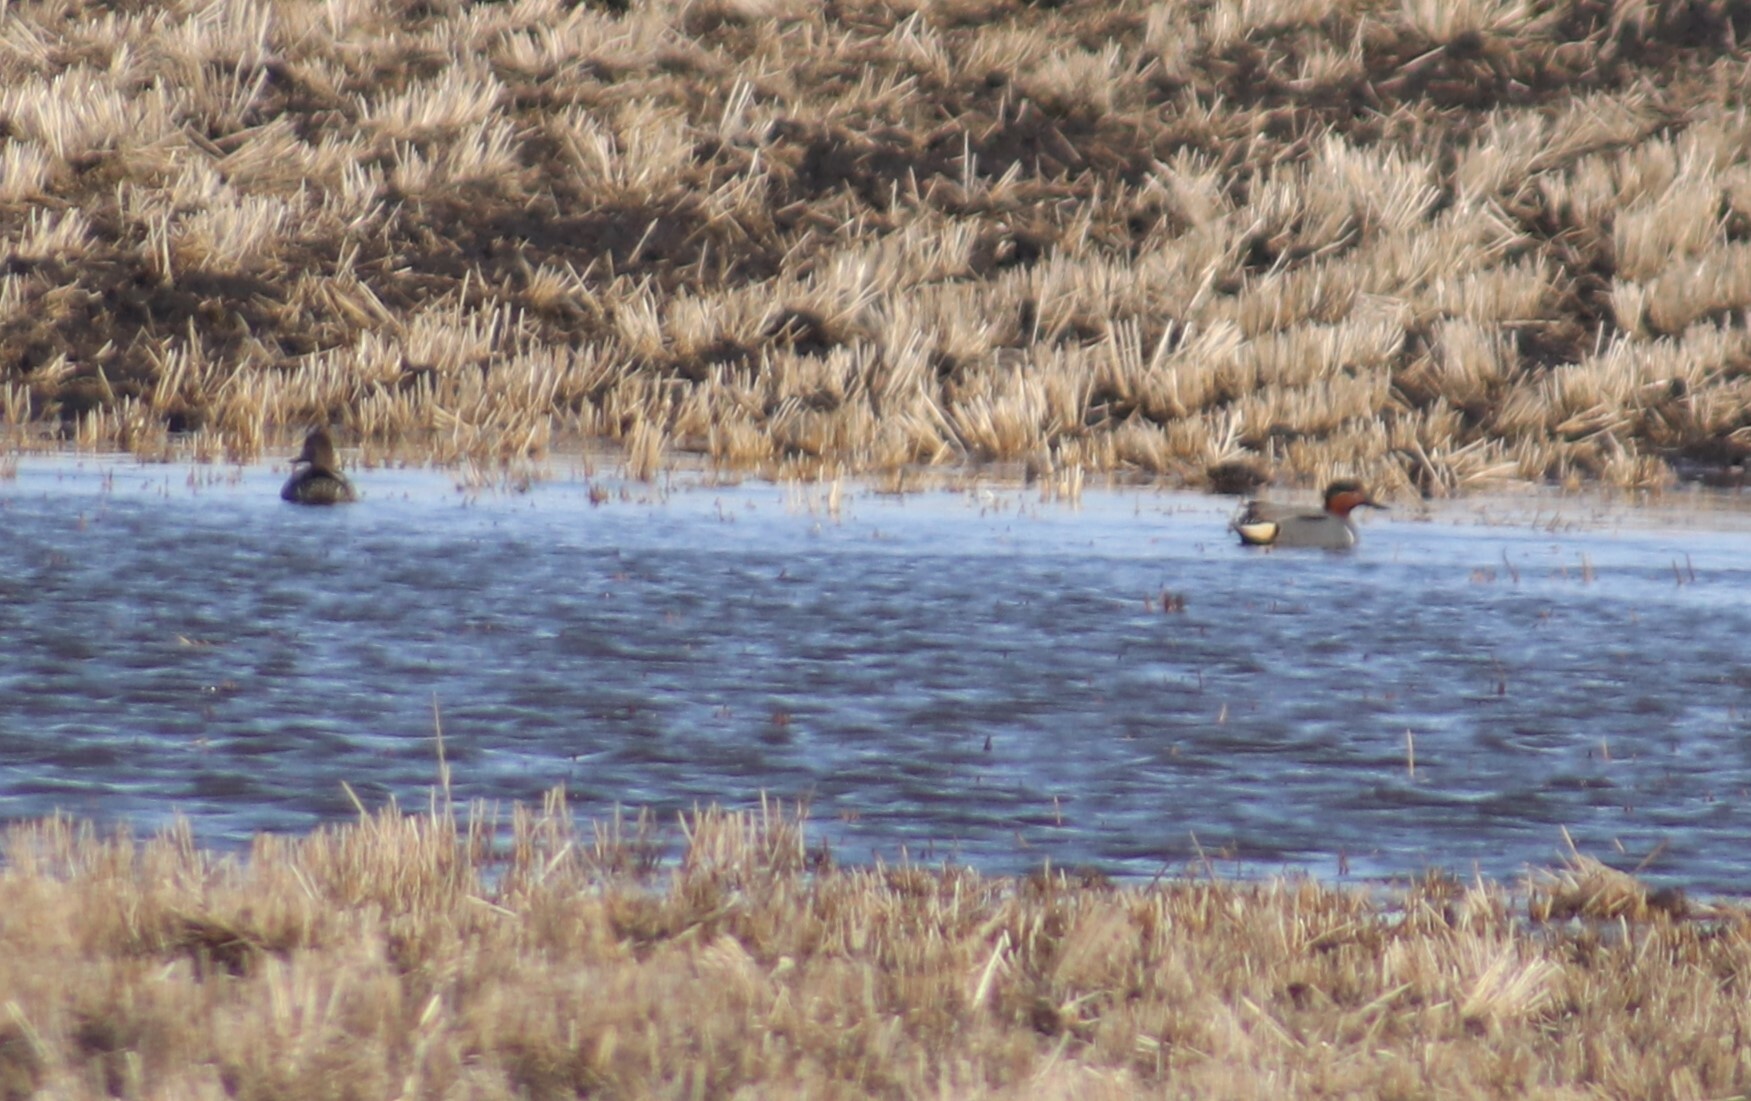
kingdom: Animalia
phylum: Chordata
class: Aves
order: Anseriformes
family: Anatidae
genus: Anas
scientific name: Anas crecca
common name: Eurasian teal
